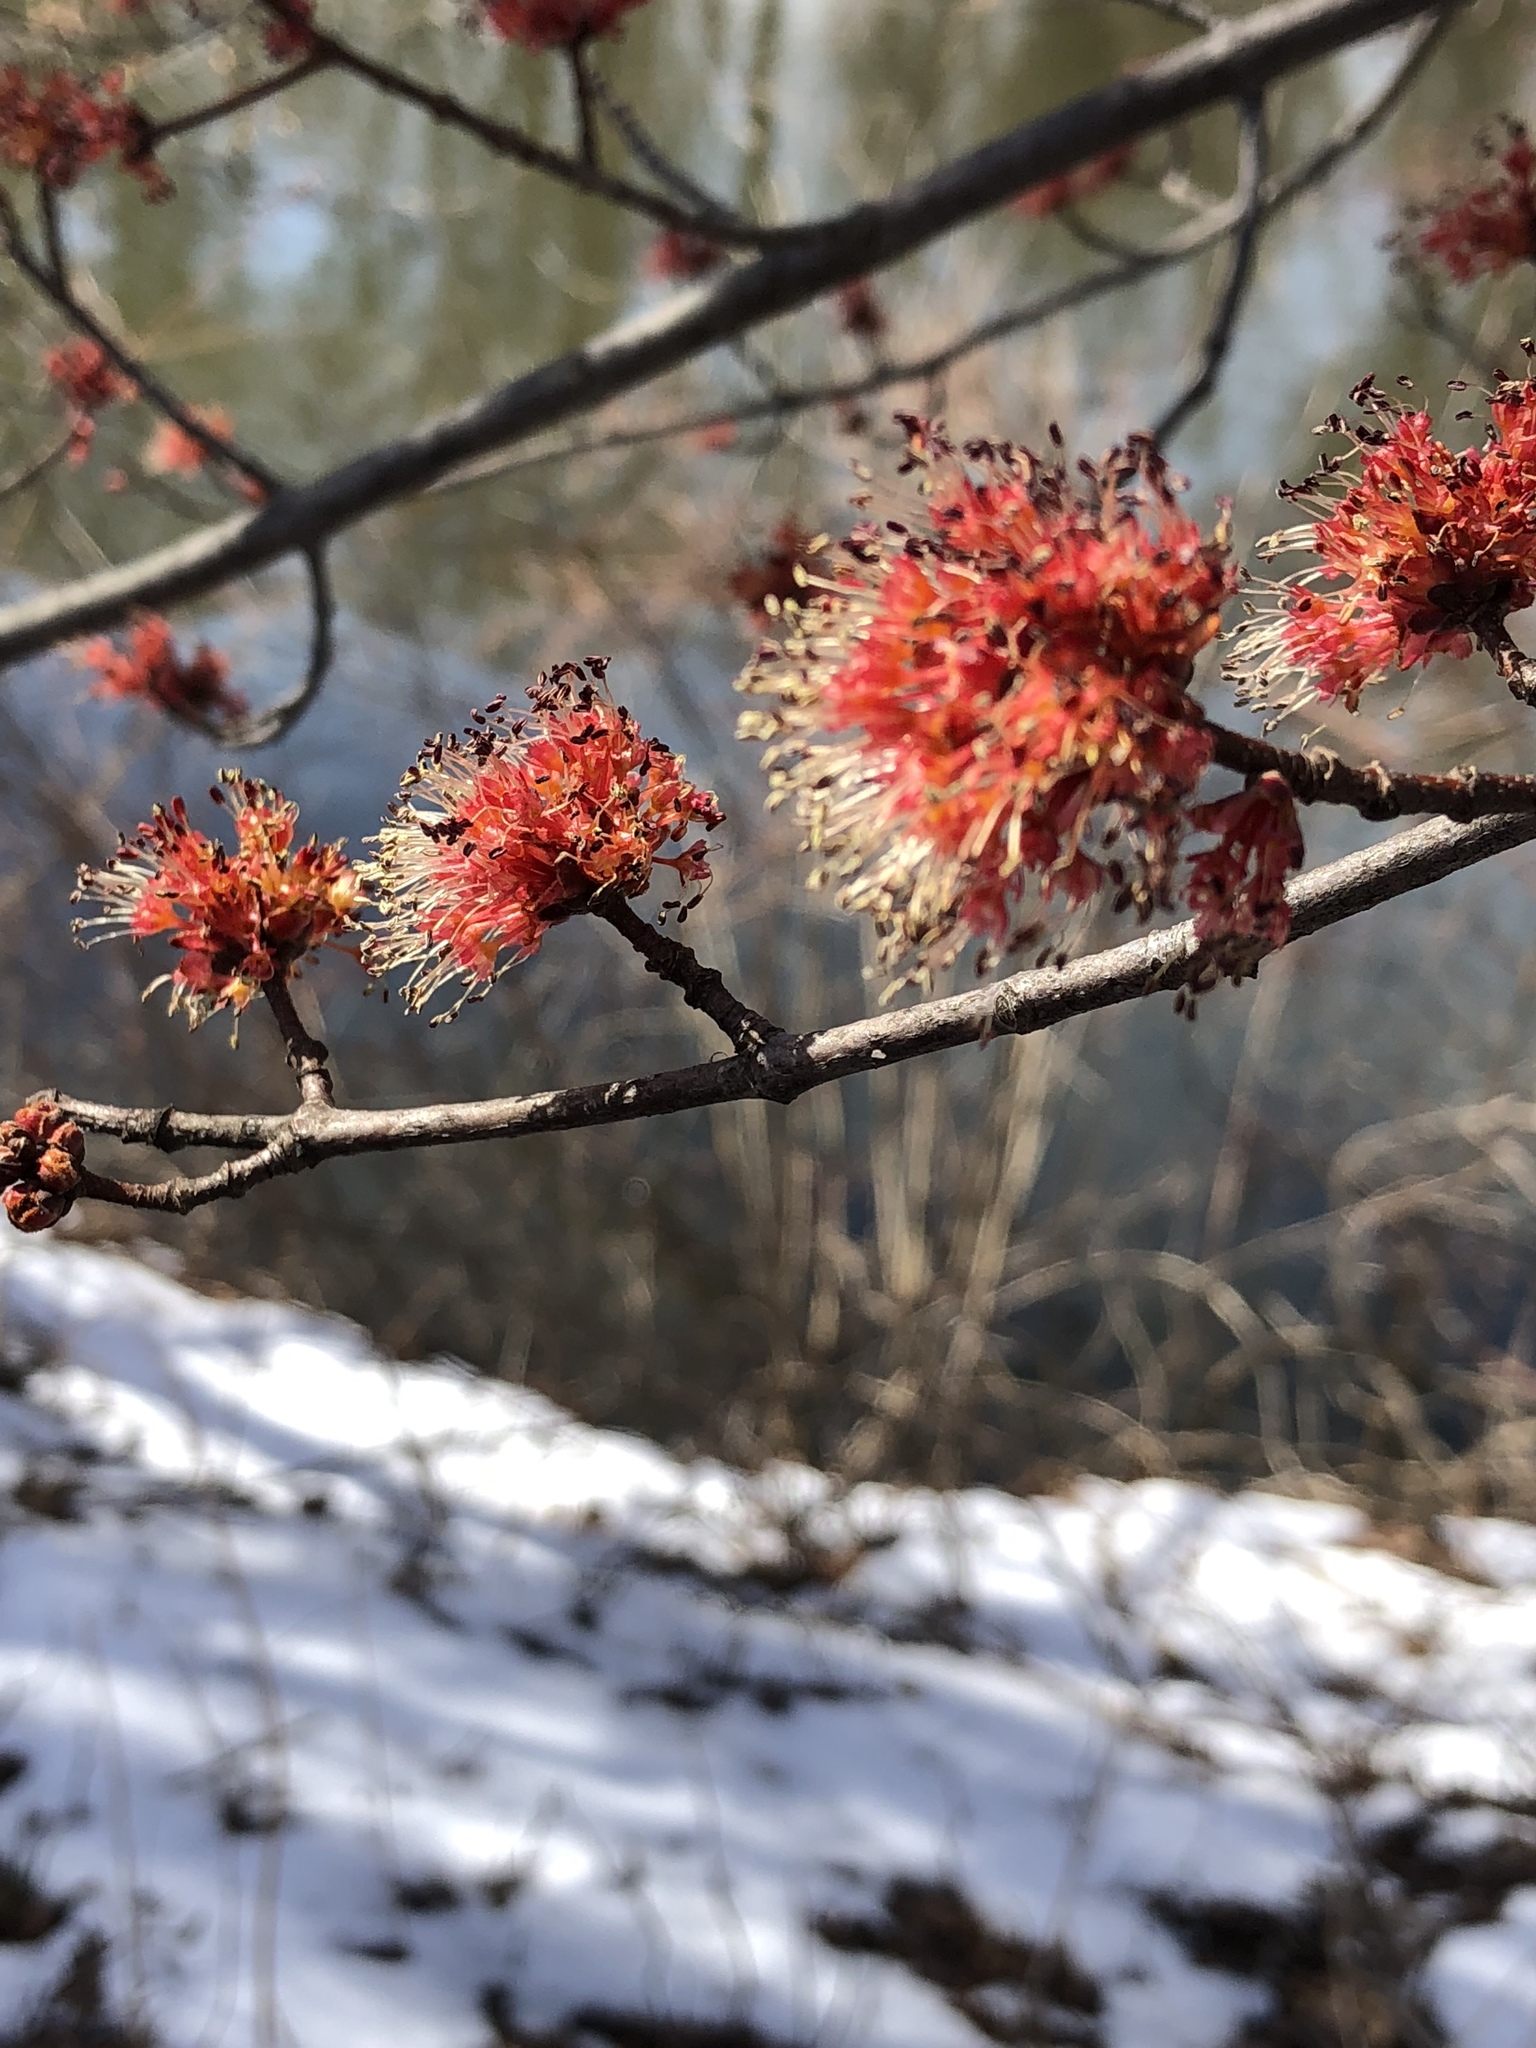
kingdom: Plantae
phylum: Tracheophyta
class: Magnoliopsida
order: Sapindales
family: Sapindaceae
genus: Acer
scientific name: Acer rubrum
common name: Red maple
